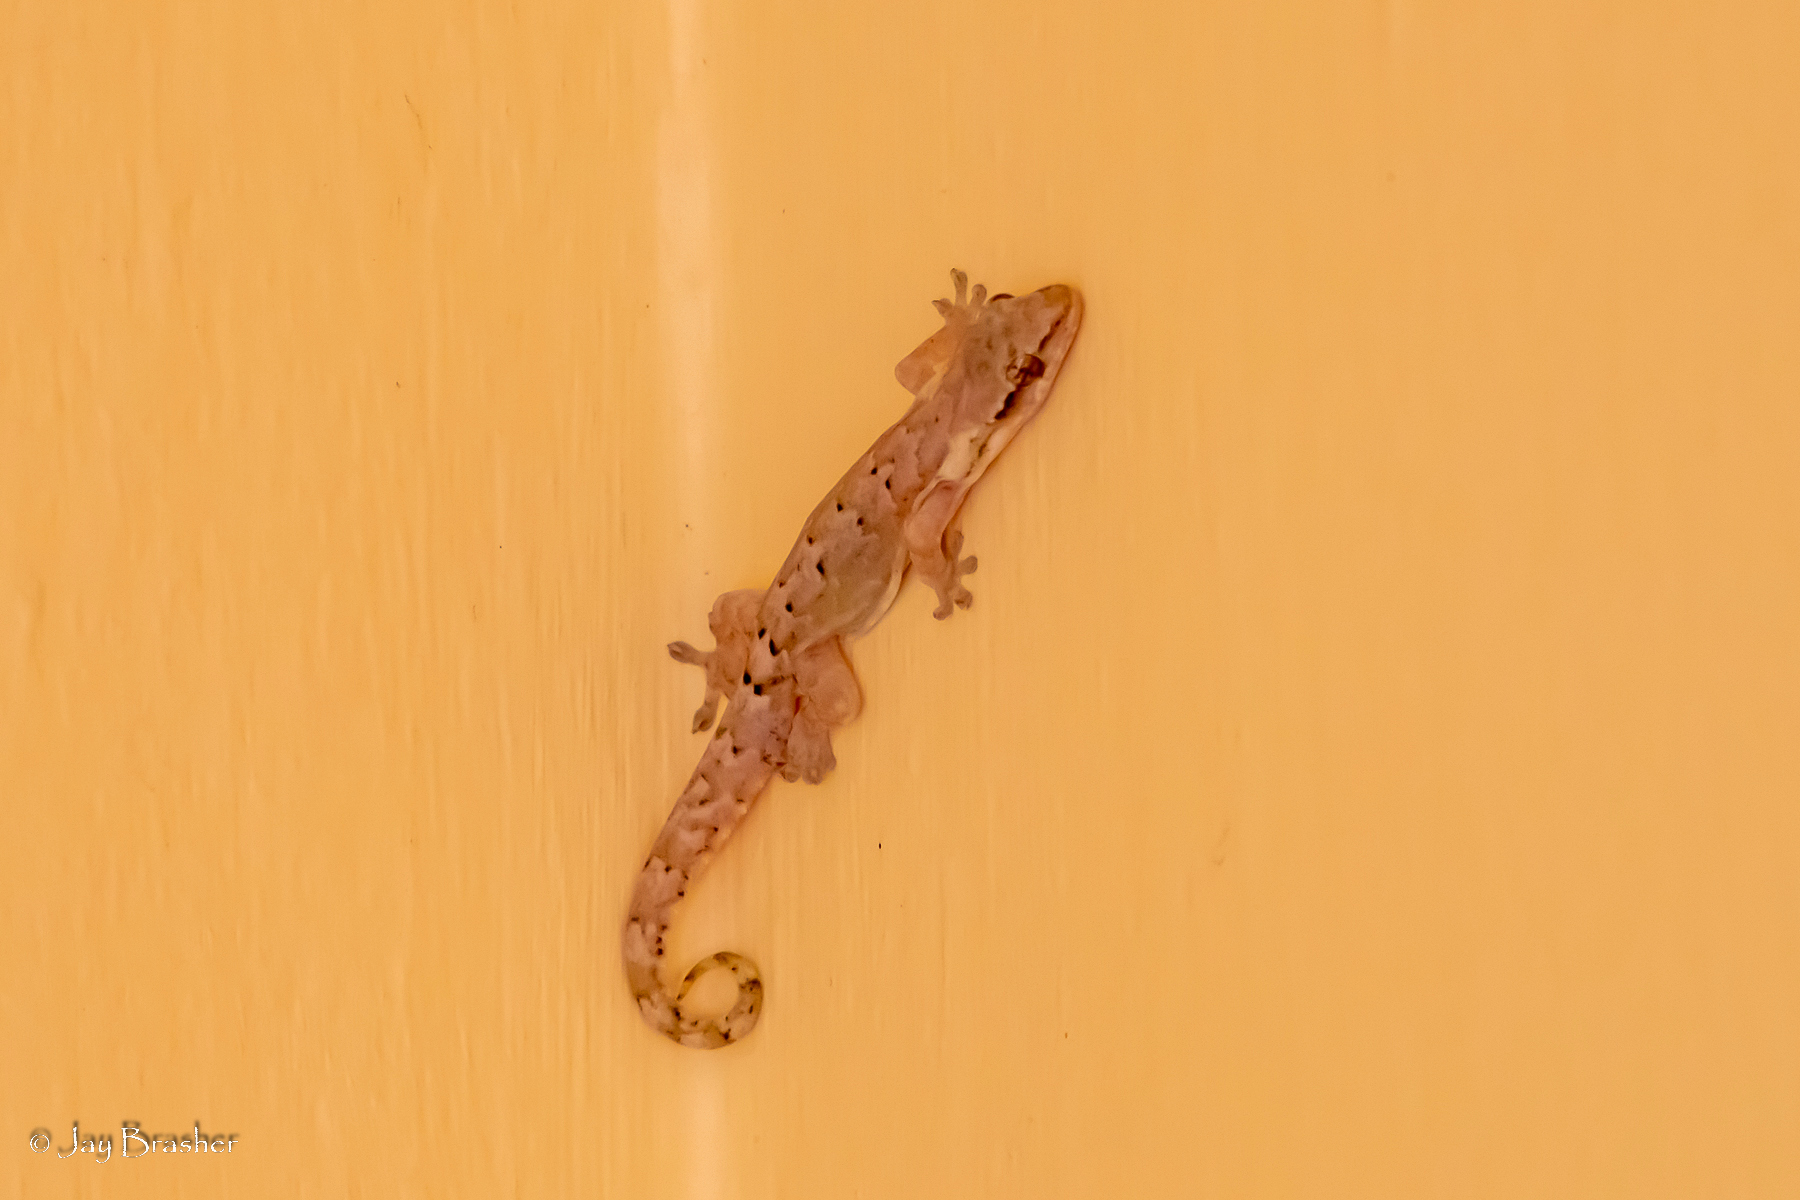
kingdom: Animalia
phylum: Chordata
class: Squamata
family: Gekkonidae
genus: Lepidodactylus
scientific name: Lepidodactylus lugubris
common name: Mourning gecko
